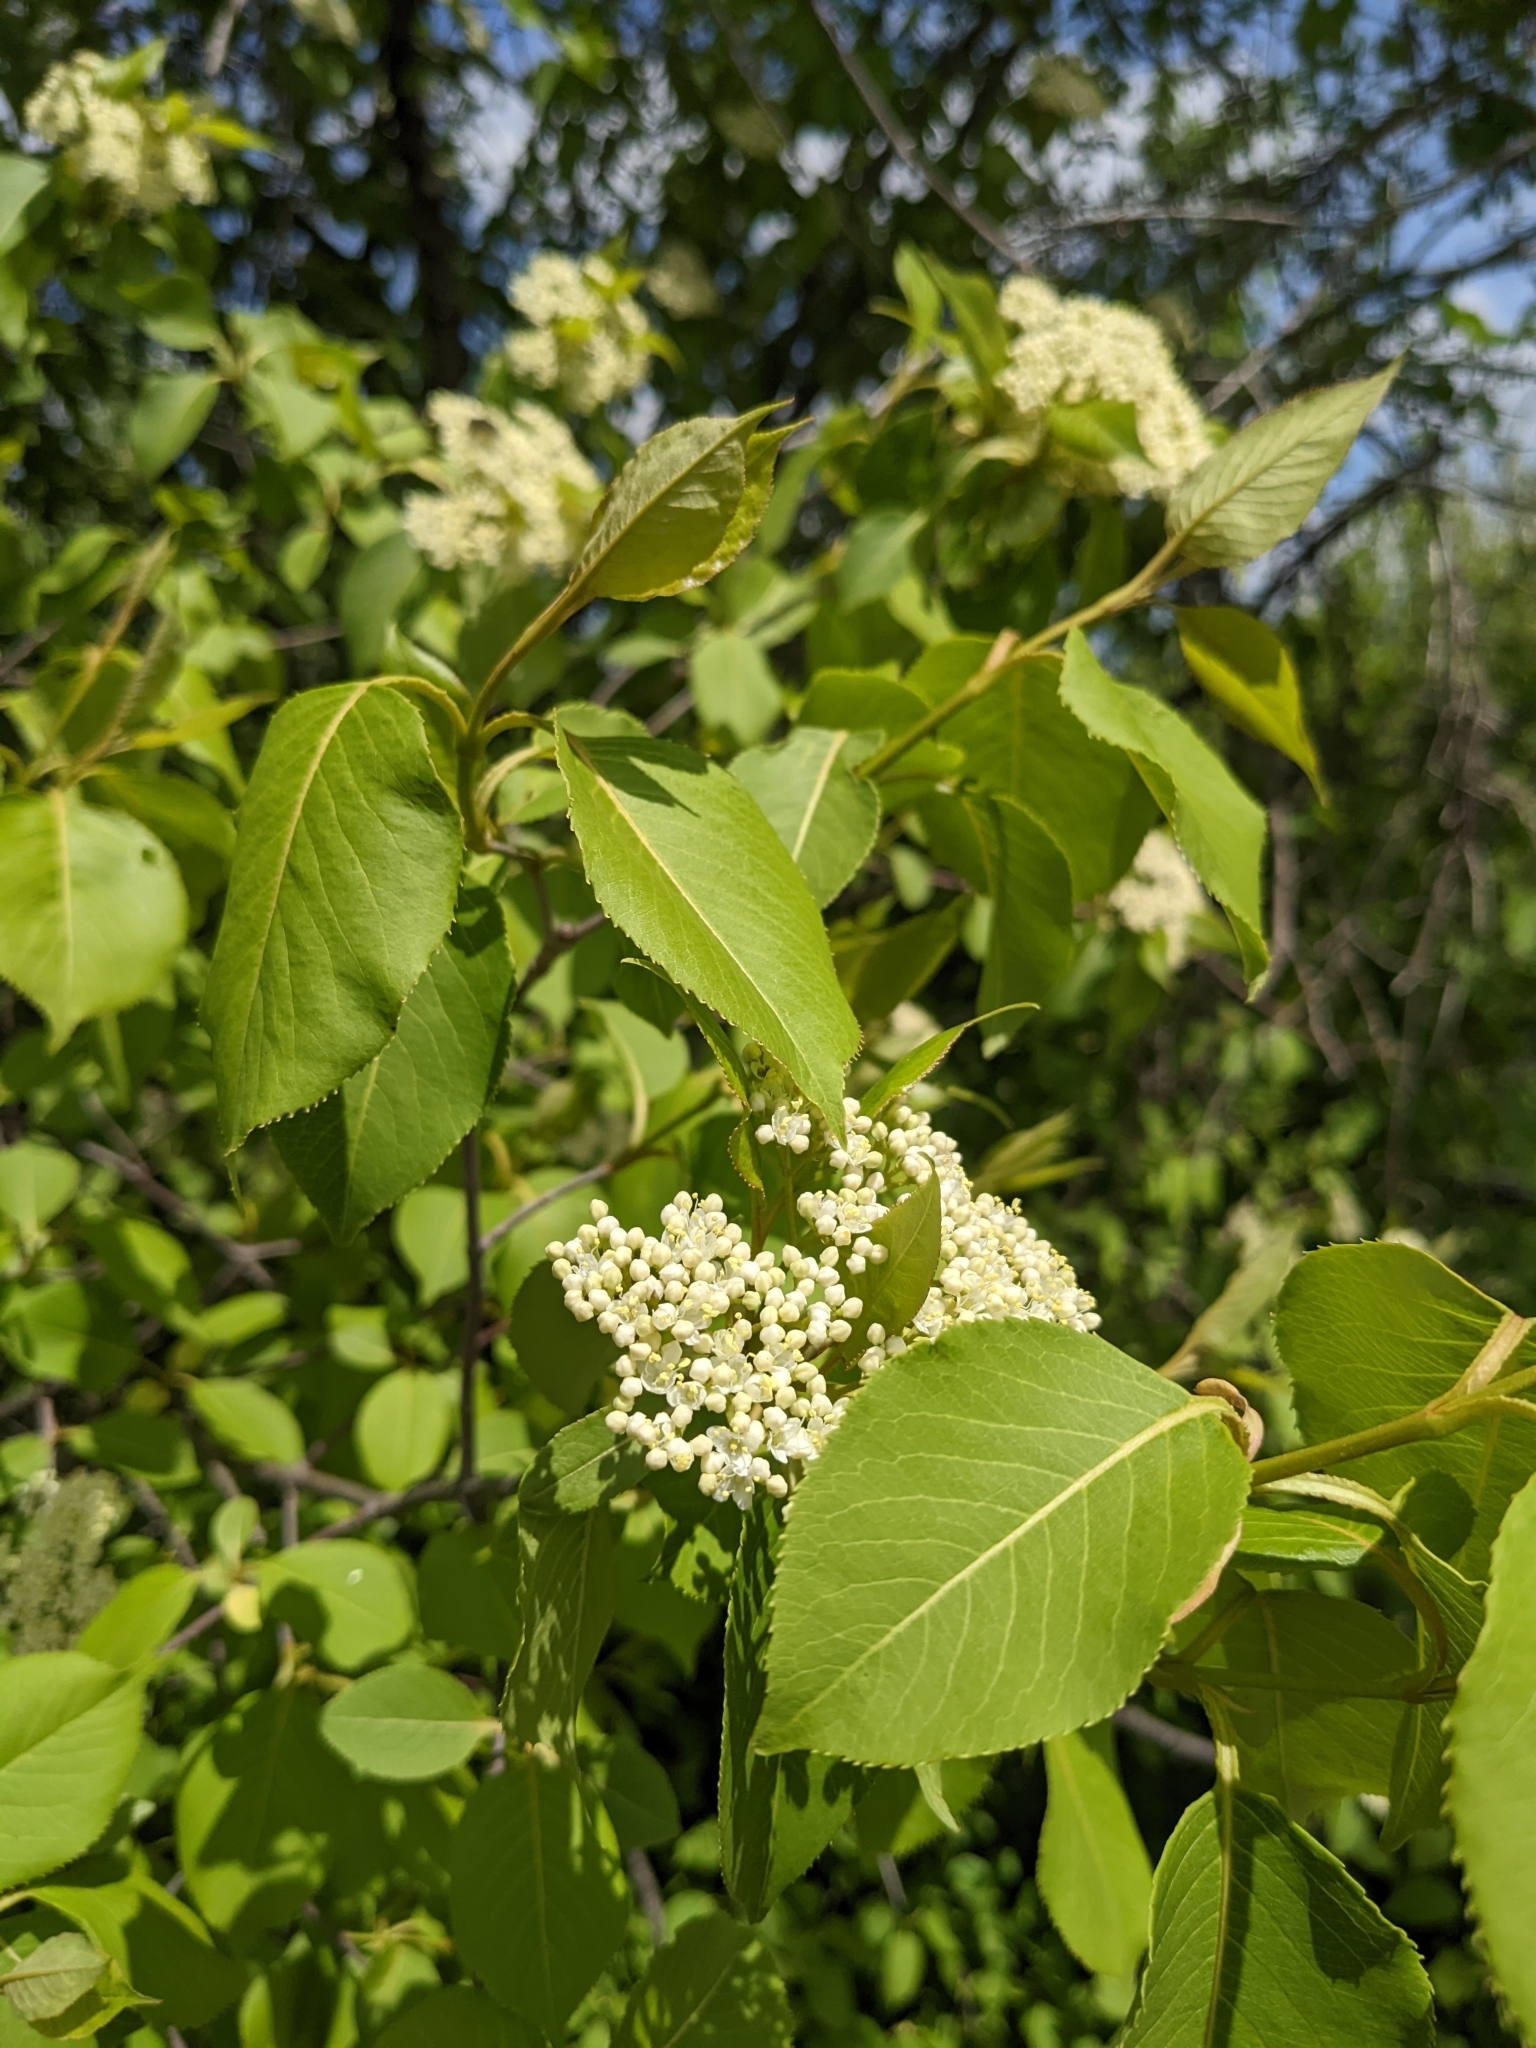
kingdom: Plantae
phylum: Tracheophyta
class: Magnoliopsida
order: Dipsacales
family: Viburnaceae
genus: Viburnum
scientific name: Viburnum lentago
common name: Black haw
